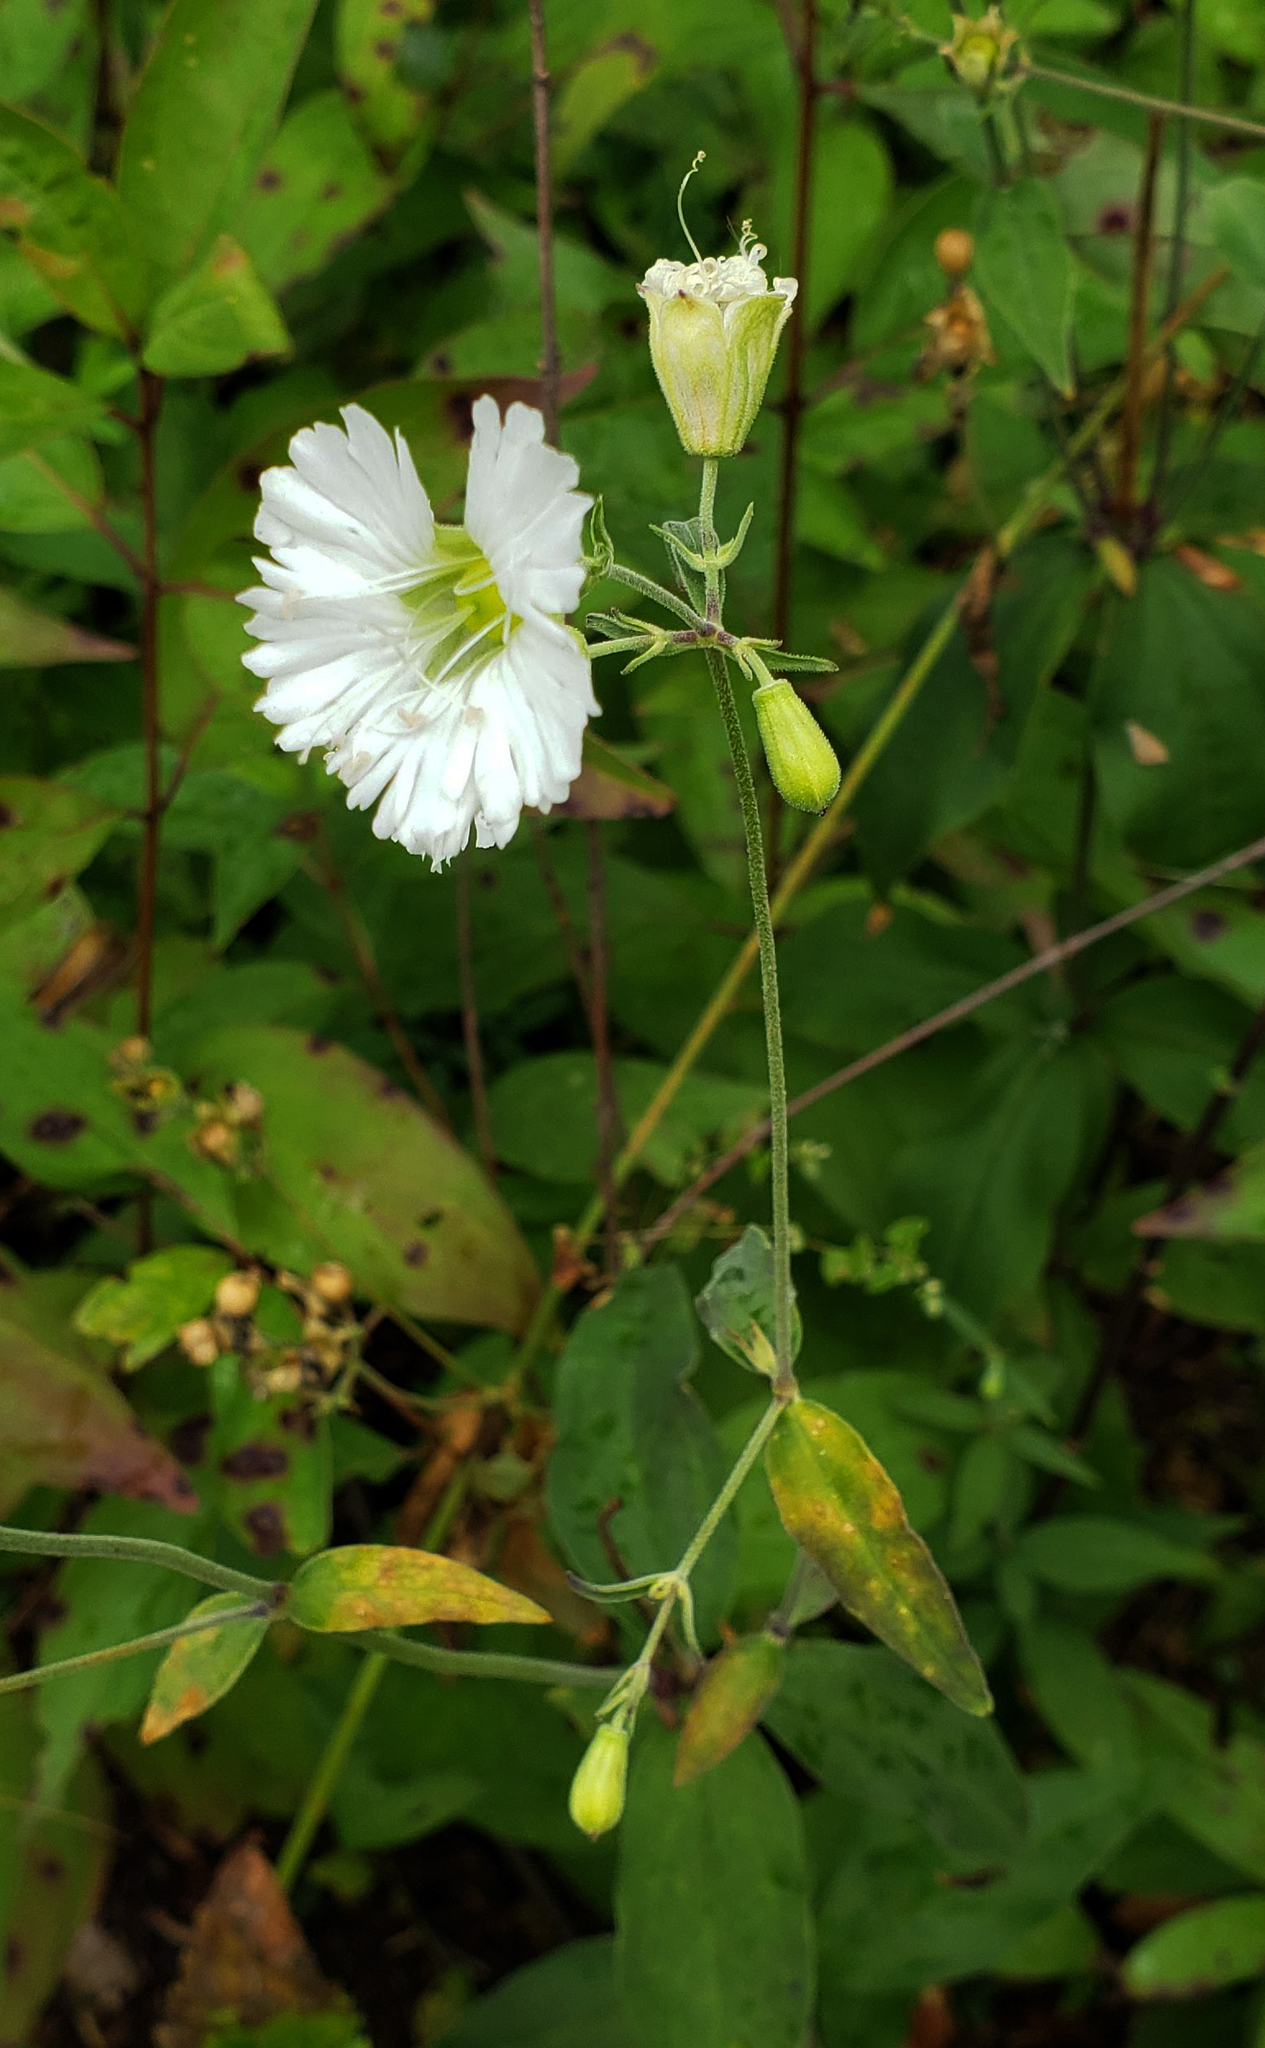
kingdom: Plantae
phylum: Tracheophyta
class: Magnoliopsida
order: Caryophyllales
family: Caryophyllaceae
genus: Silene
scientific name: Silene stellata
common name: Starry campion
